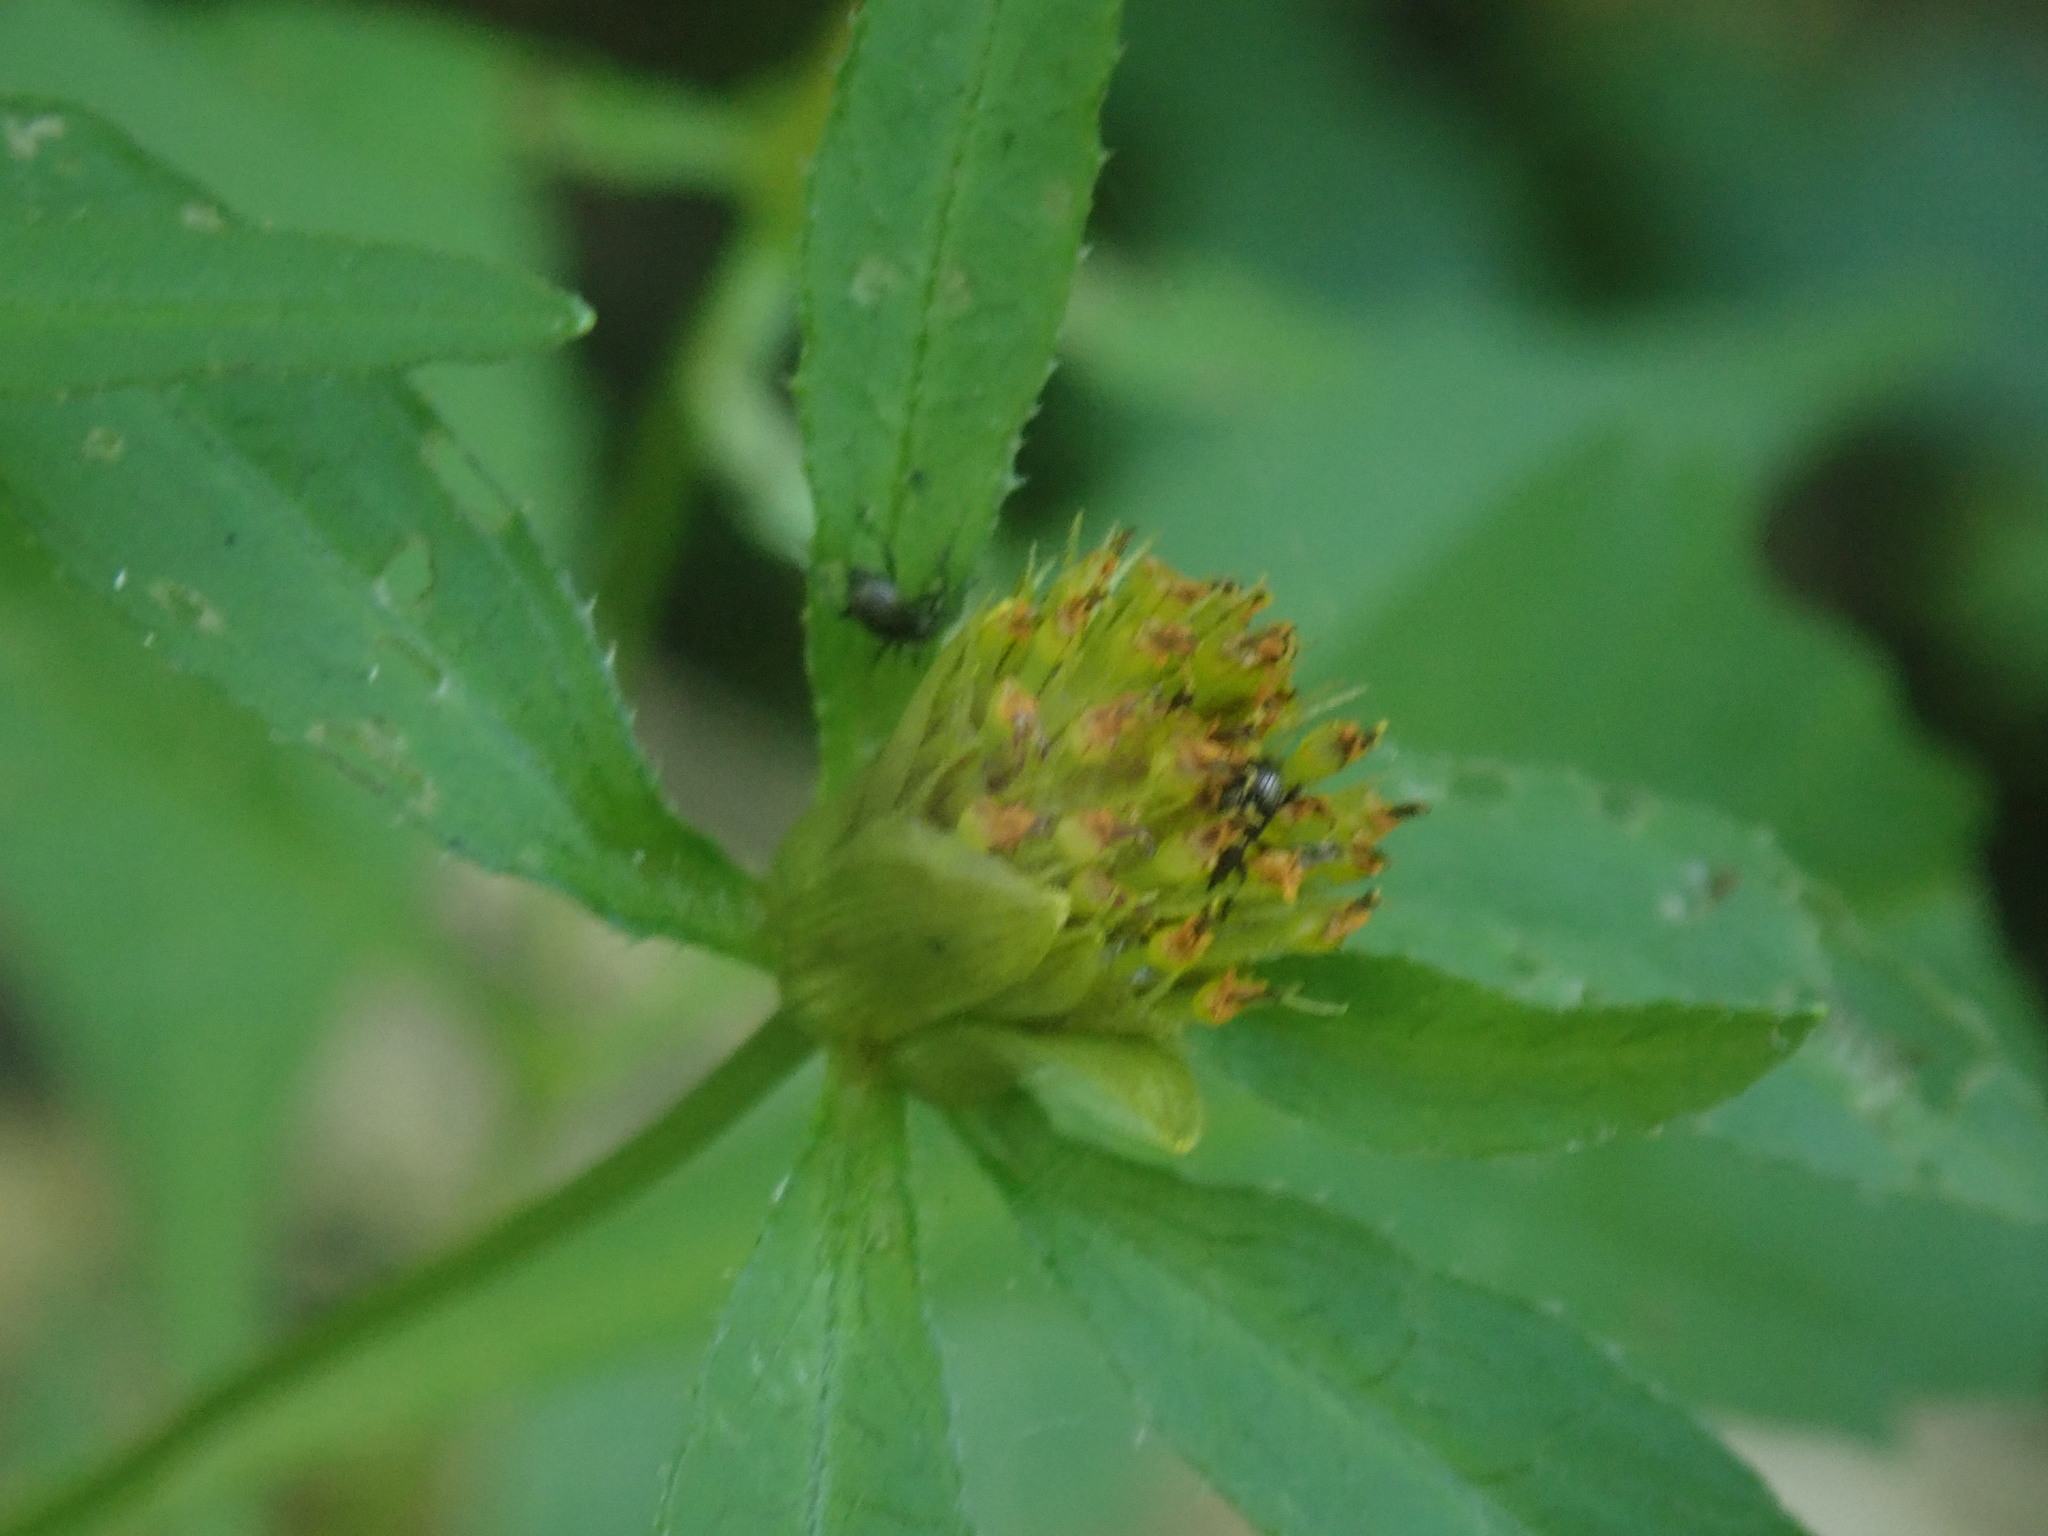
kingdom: Plantae
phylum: Tracheophyta
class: Magnoliopsida
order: Asterales
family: Asteraceae
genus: Bidens
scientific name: Bidens connata
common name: London bur-marigold
